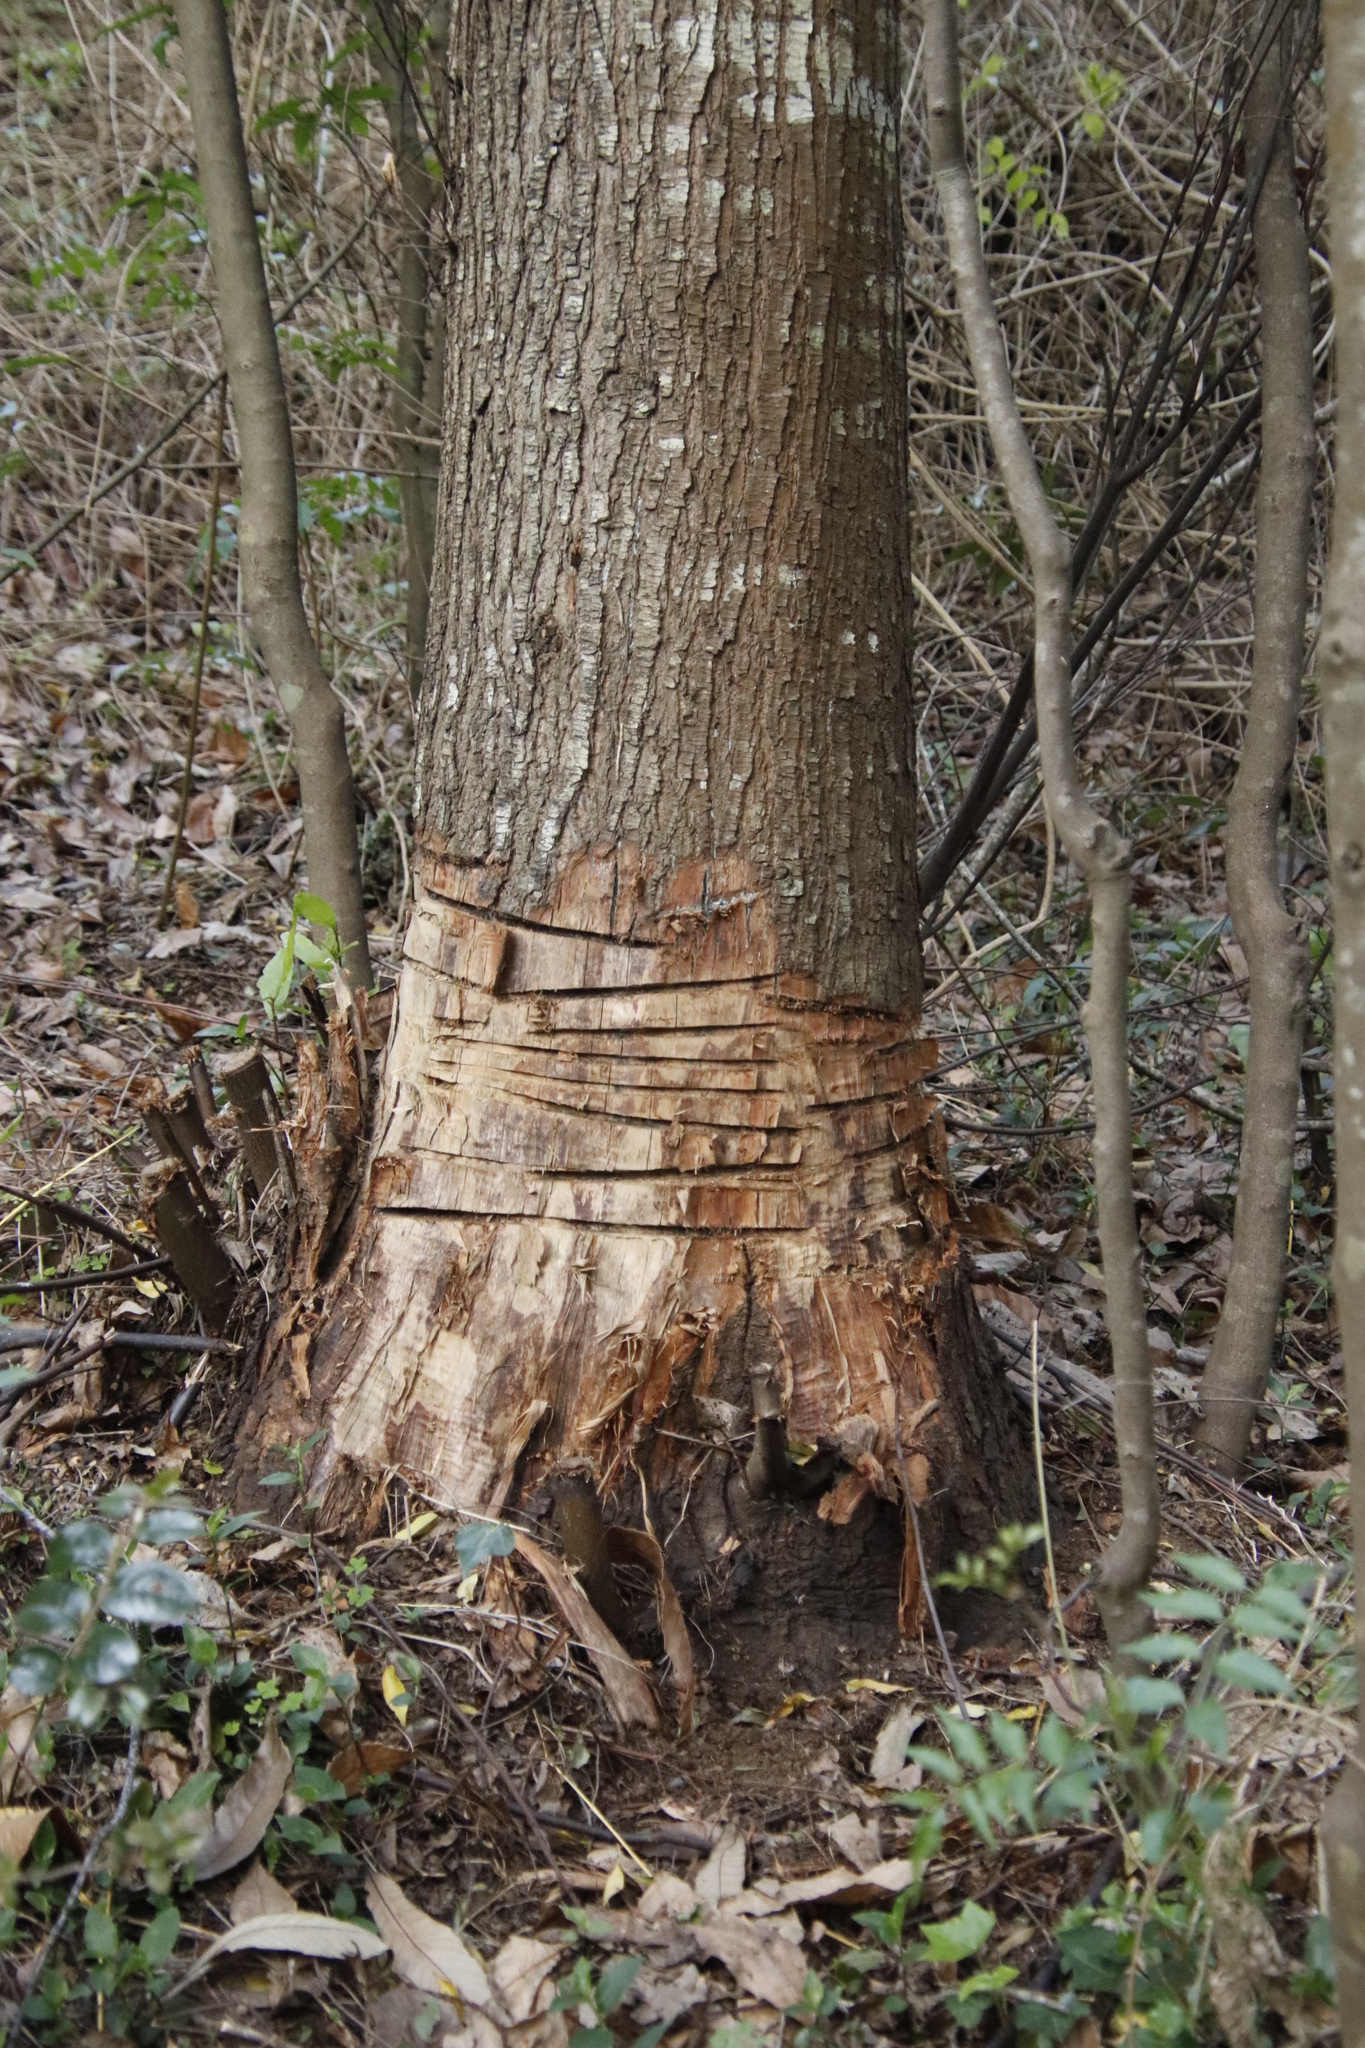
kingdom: Plantae
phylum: Tracheophyta
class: Magnoliopsida
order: Fagales
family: Fagaceae
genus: Castanea
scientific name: Castanea sativa
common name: Sweet chestnut
